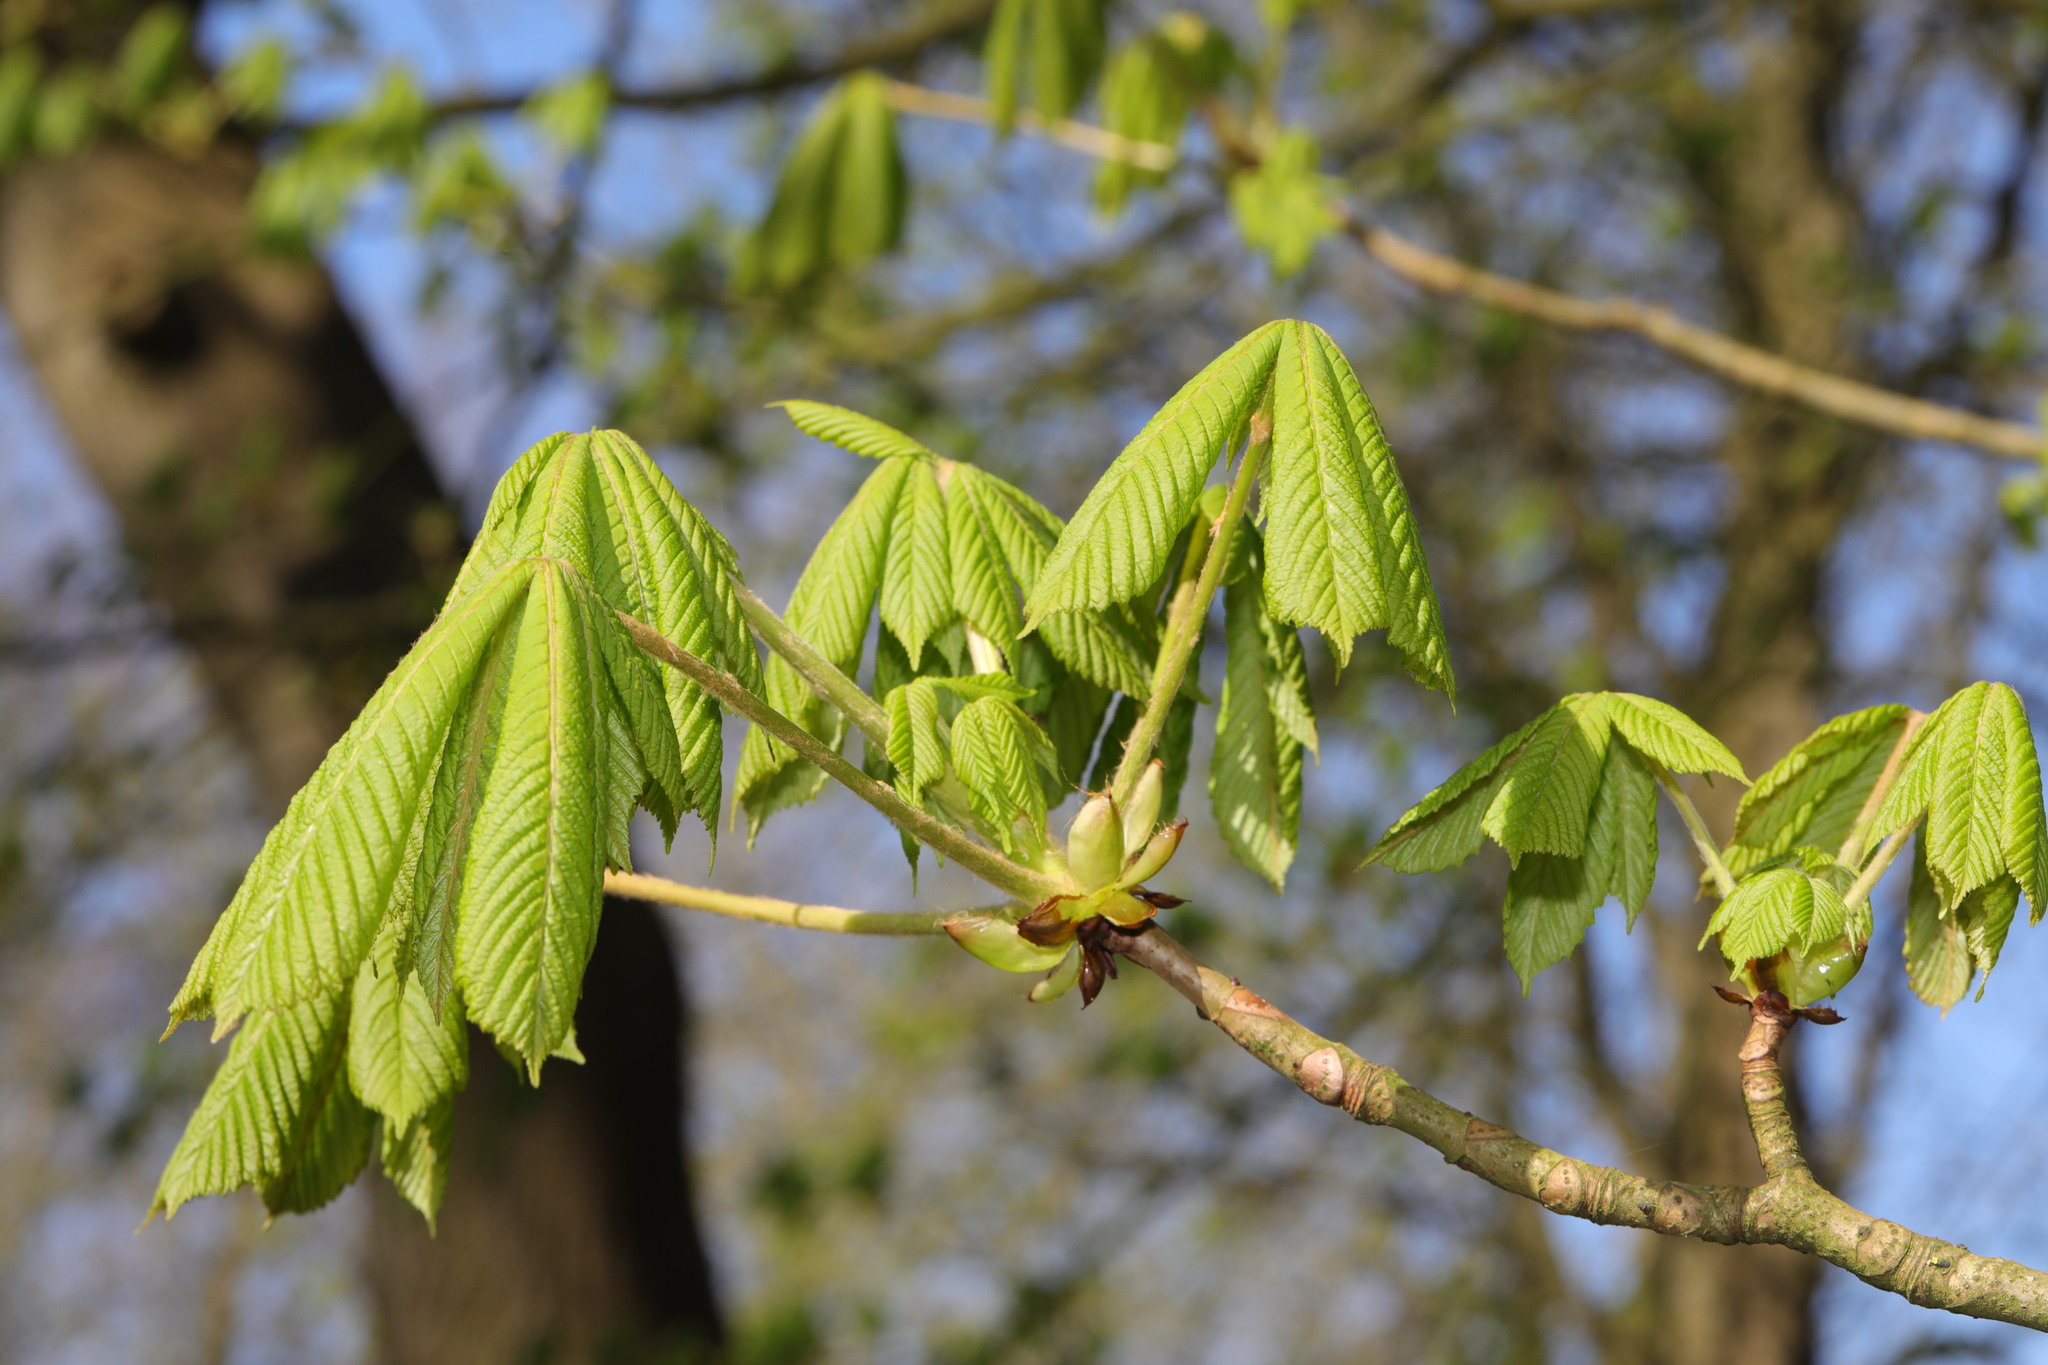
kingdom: Plantae
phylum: Tracheophyta
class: Magnoliopsida
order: Sapindales
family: Sapindaceae
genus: Aesculus
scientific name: Aesculus hippocastanum
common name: Horse-chestnut
